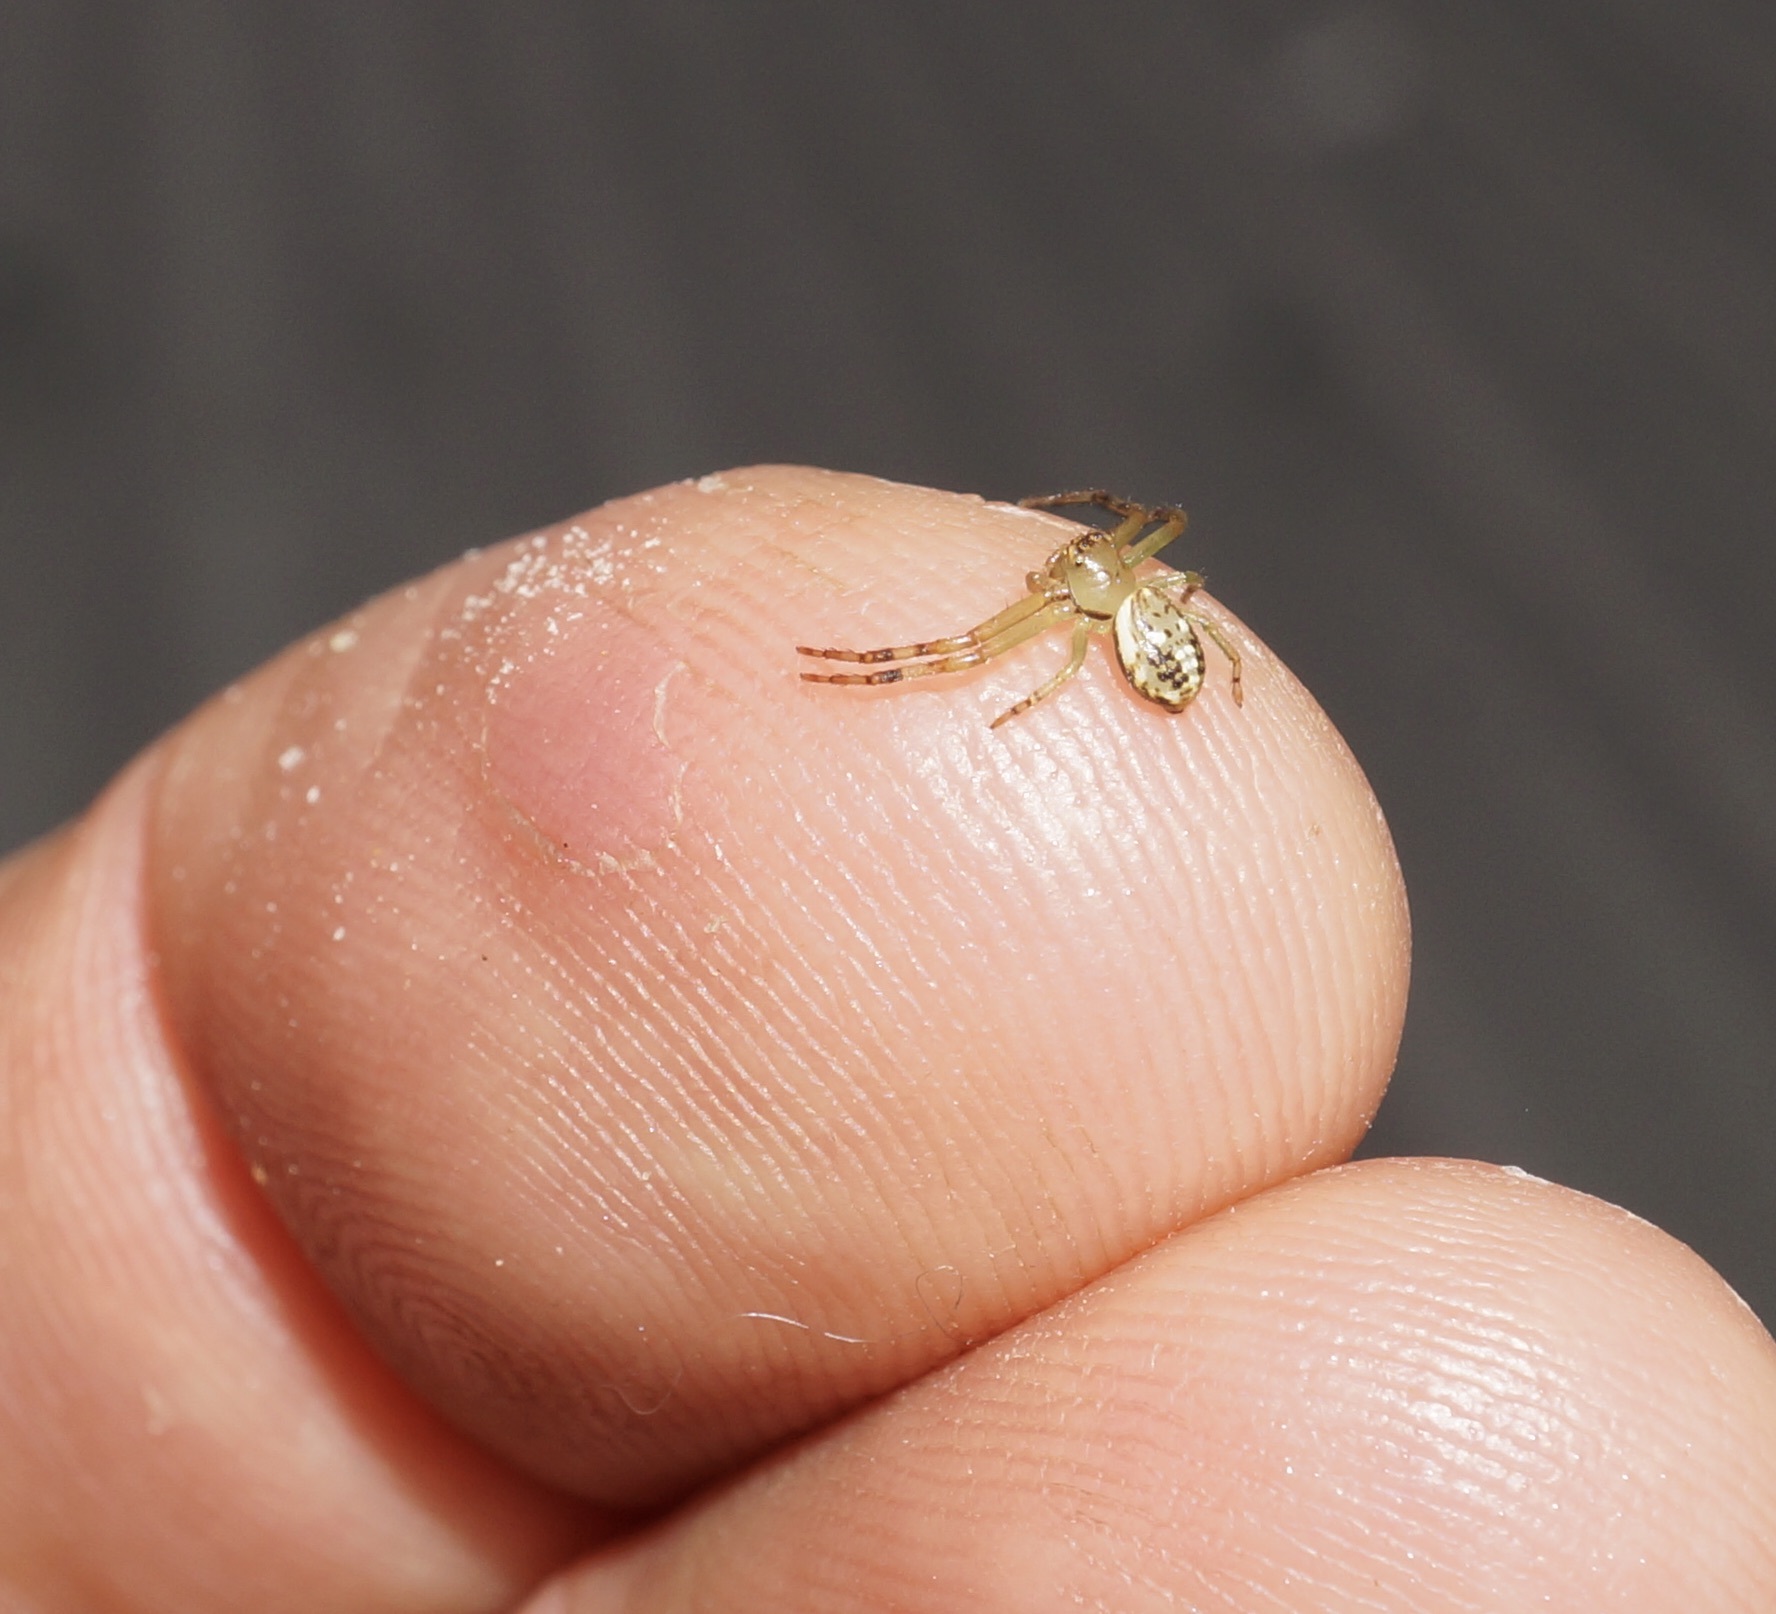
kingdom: Animalia
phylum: Arthropoda
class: Arachnida
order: Araneae
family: Thomisidae
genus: Diaea
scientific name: Diaea ambara
